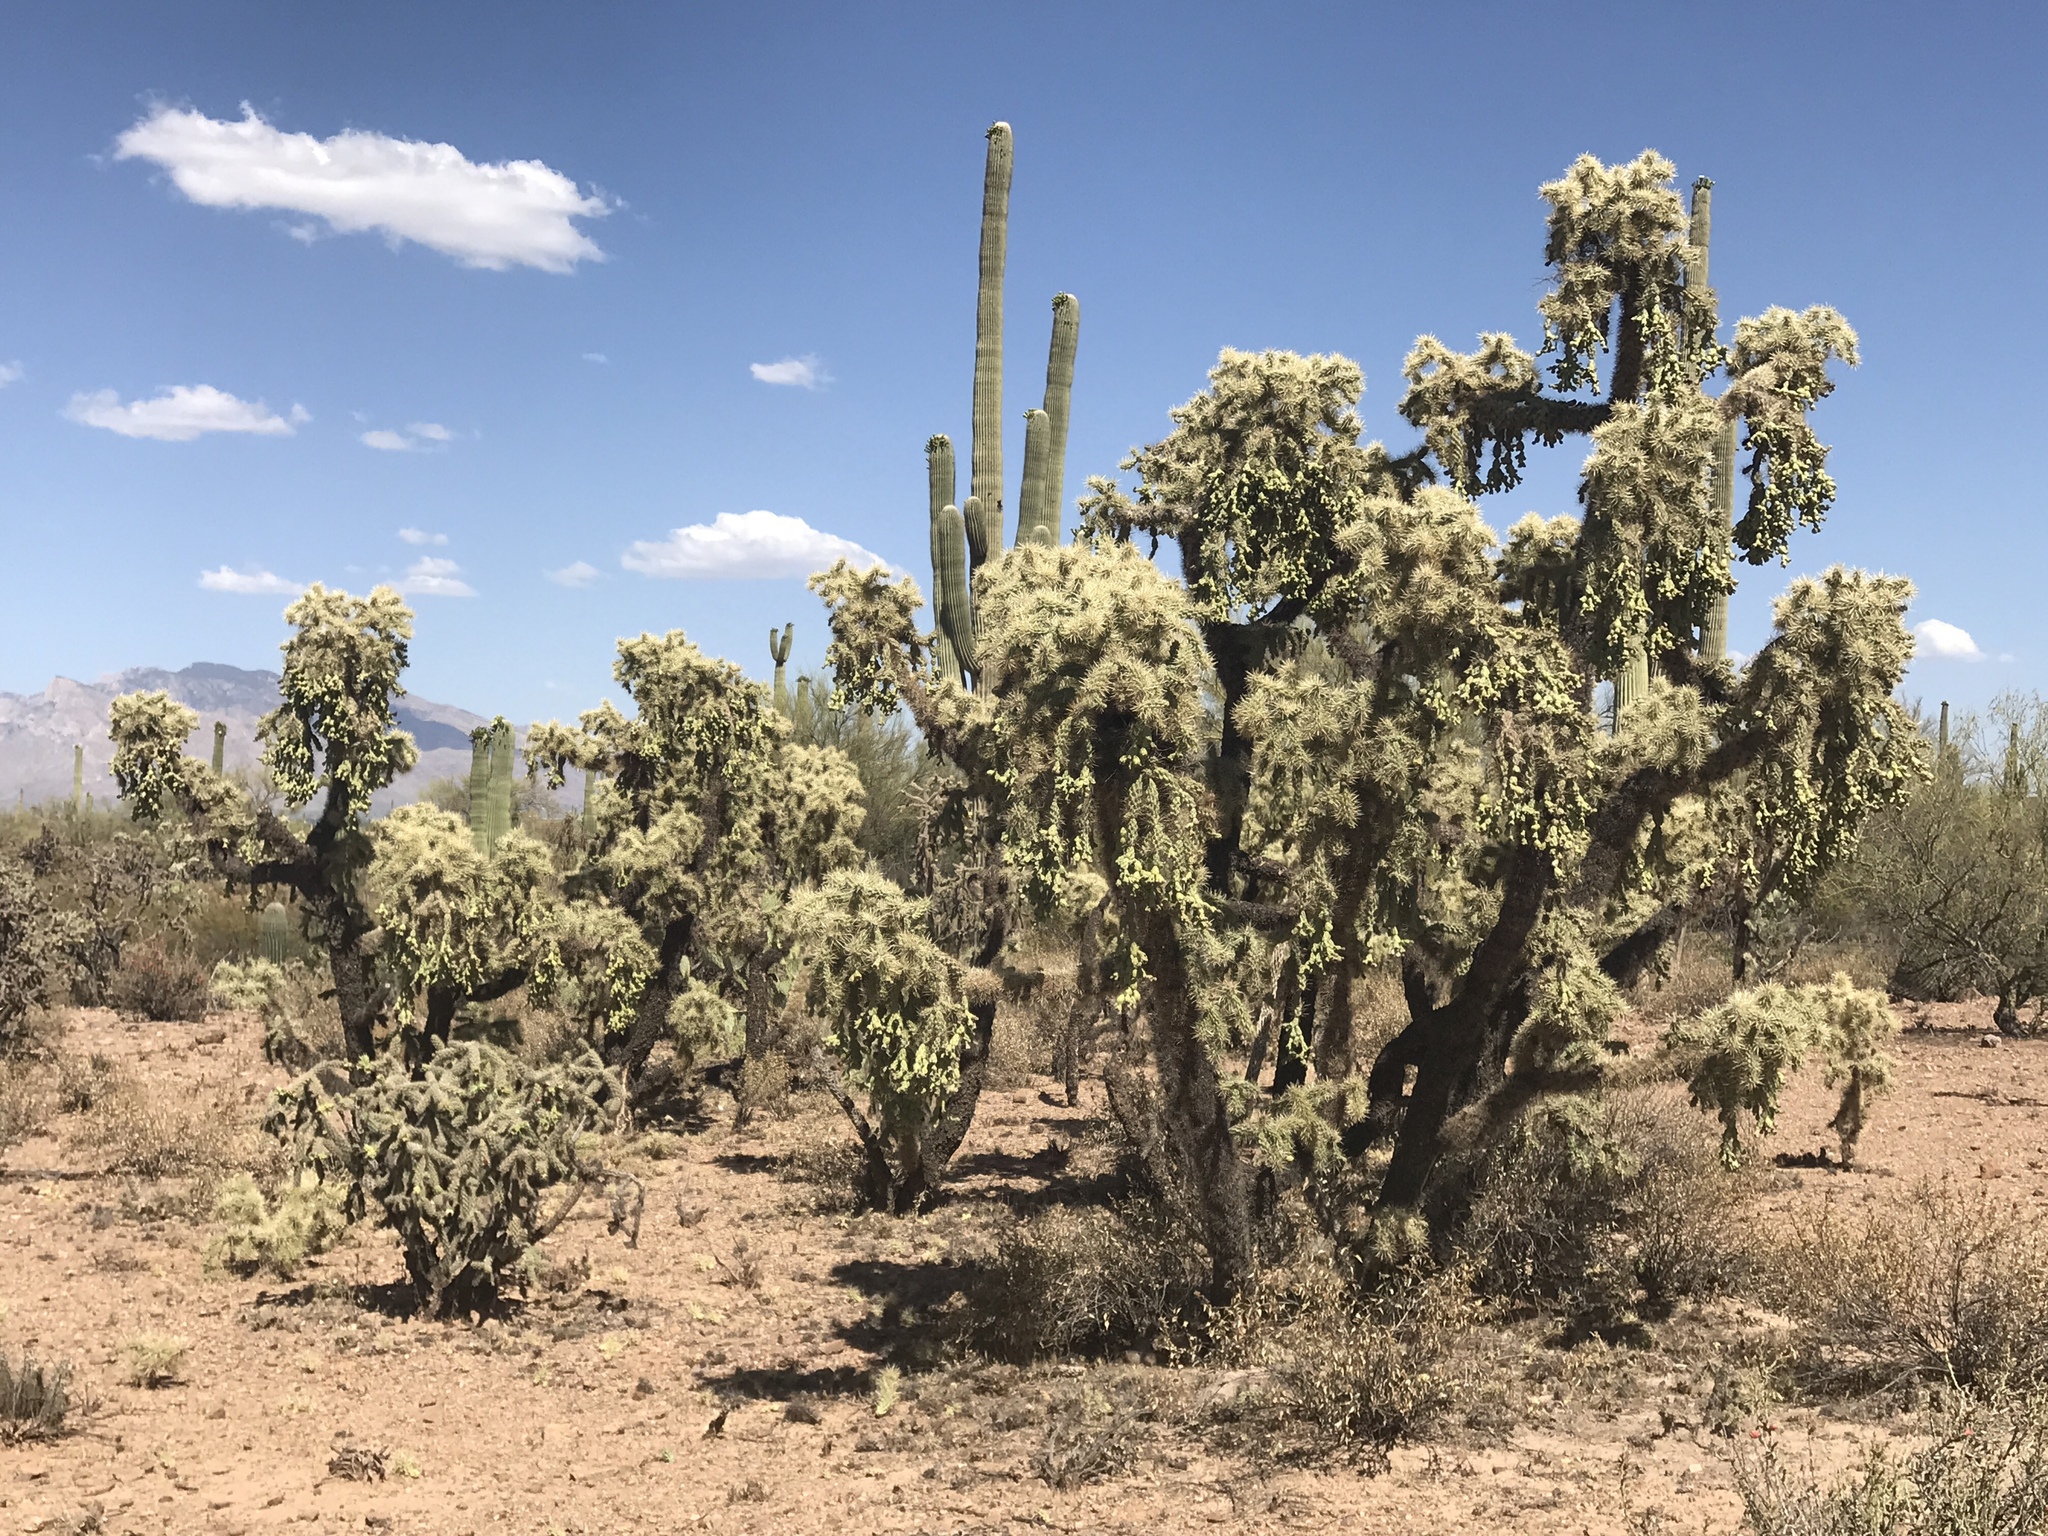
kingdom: Plantae
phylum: Tracheophyta
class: Magnoliopsida
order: Caryophyllales
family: Cactaceae
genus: Cylindropuntia
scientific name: Cylindropuntia fulgida
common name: Jumping cholla
